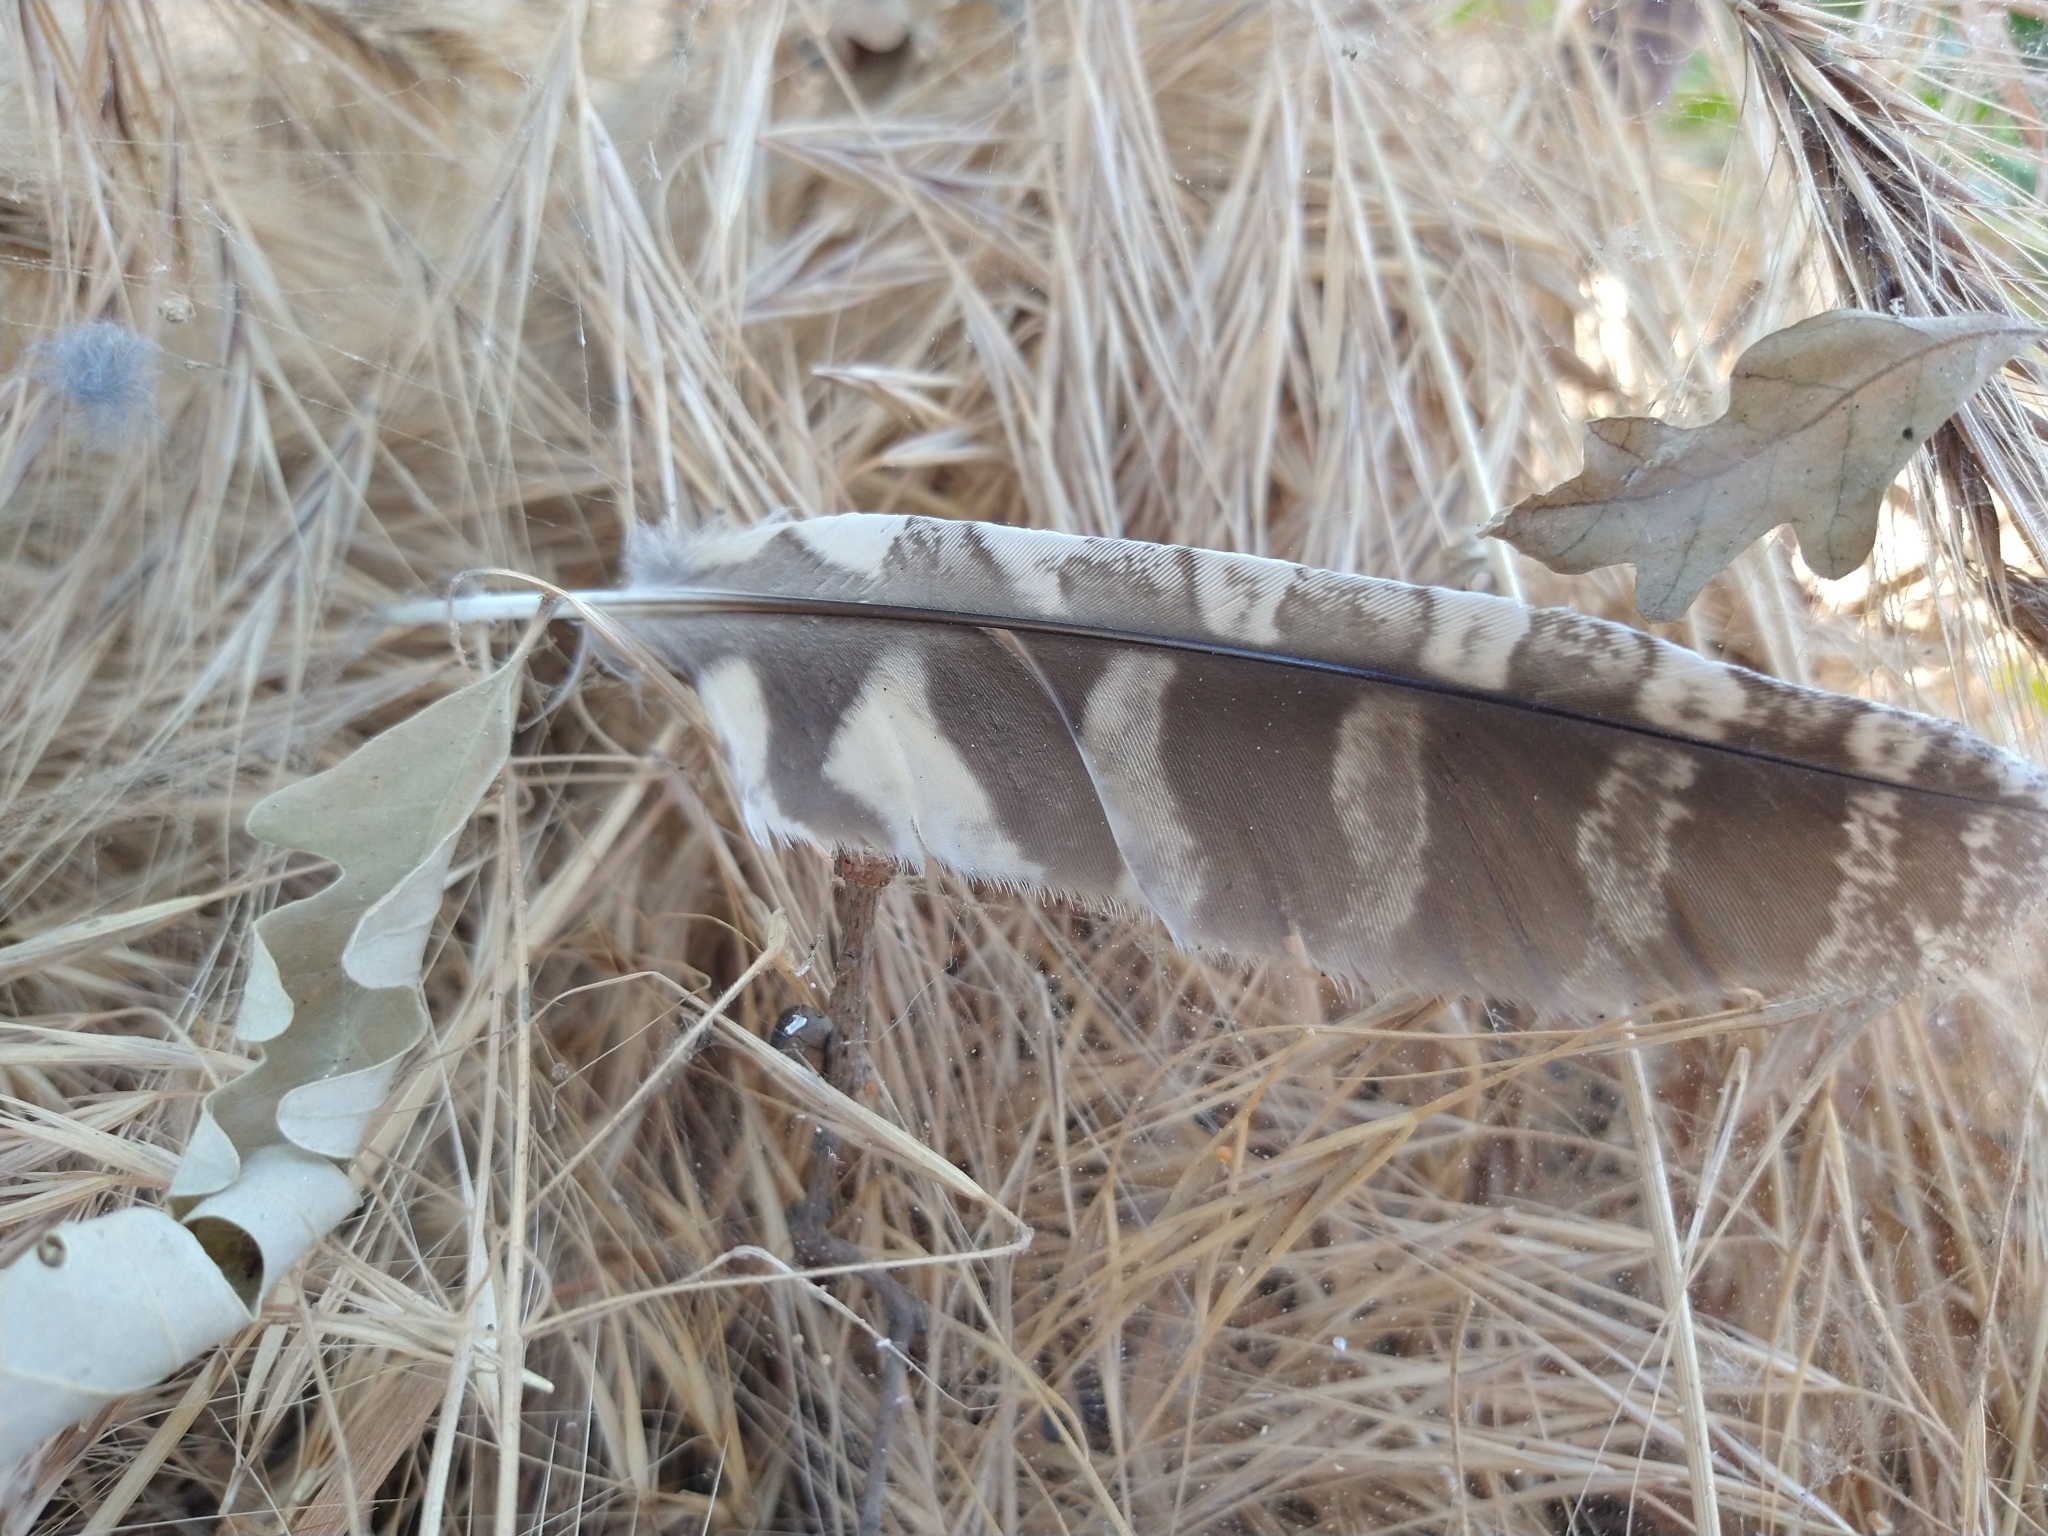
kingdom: Animalia
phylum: Chordata
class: Aves
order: Strigiformes
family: Strigidae
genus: Megascops
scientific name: Megascops kennicottii
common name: Western screech-owl
